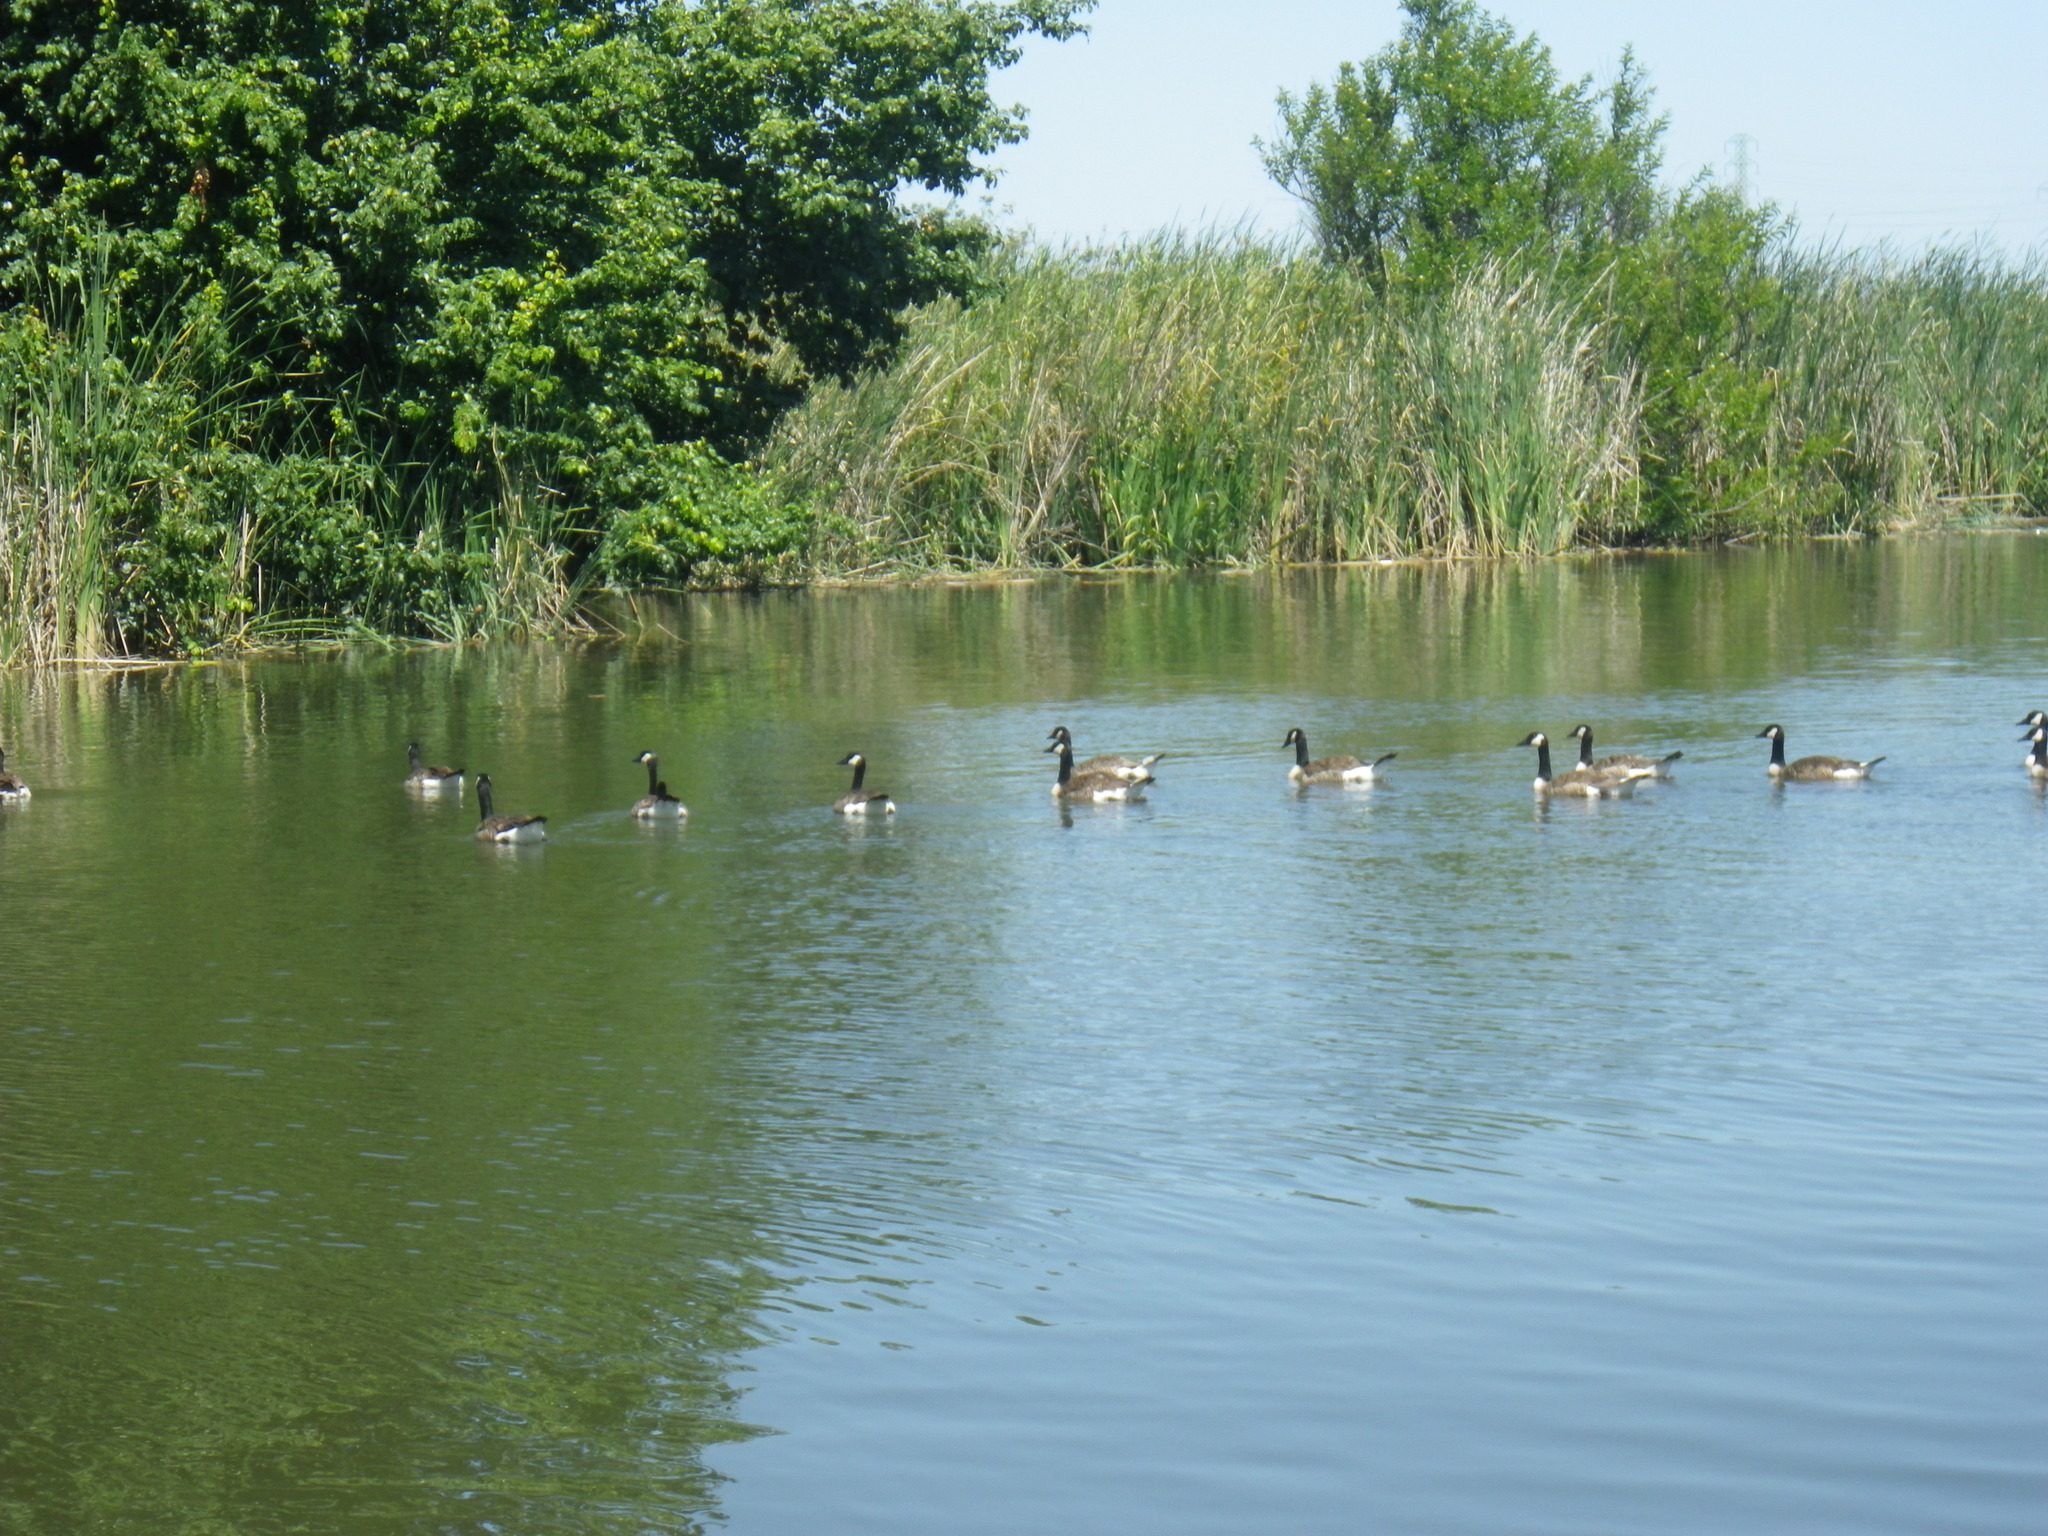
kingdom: Animalia
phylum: Chordata
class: Aves
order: Anseriformes
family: Anatidae
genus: Branta
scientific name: Branta canadensis
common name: Canada goose
